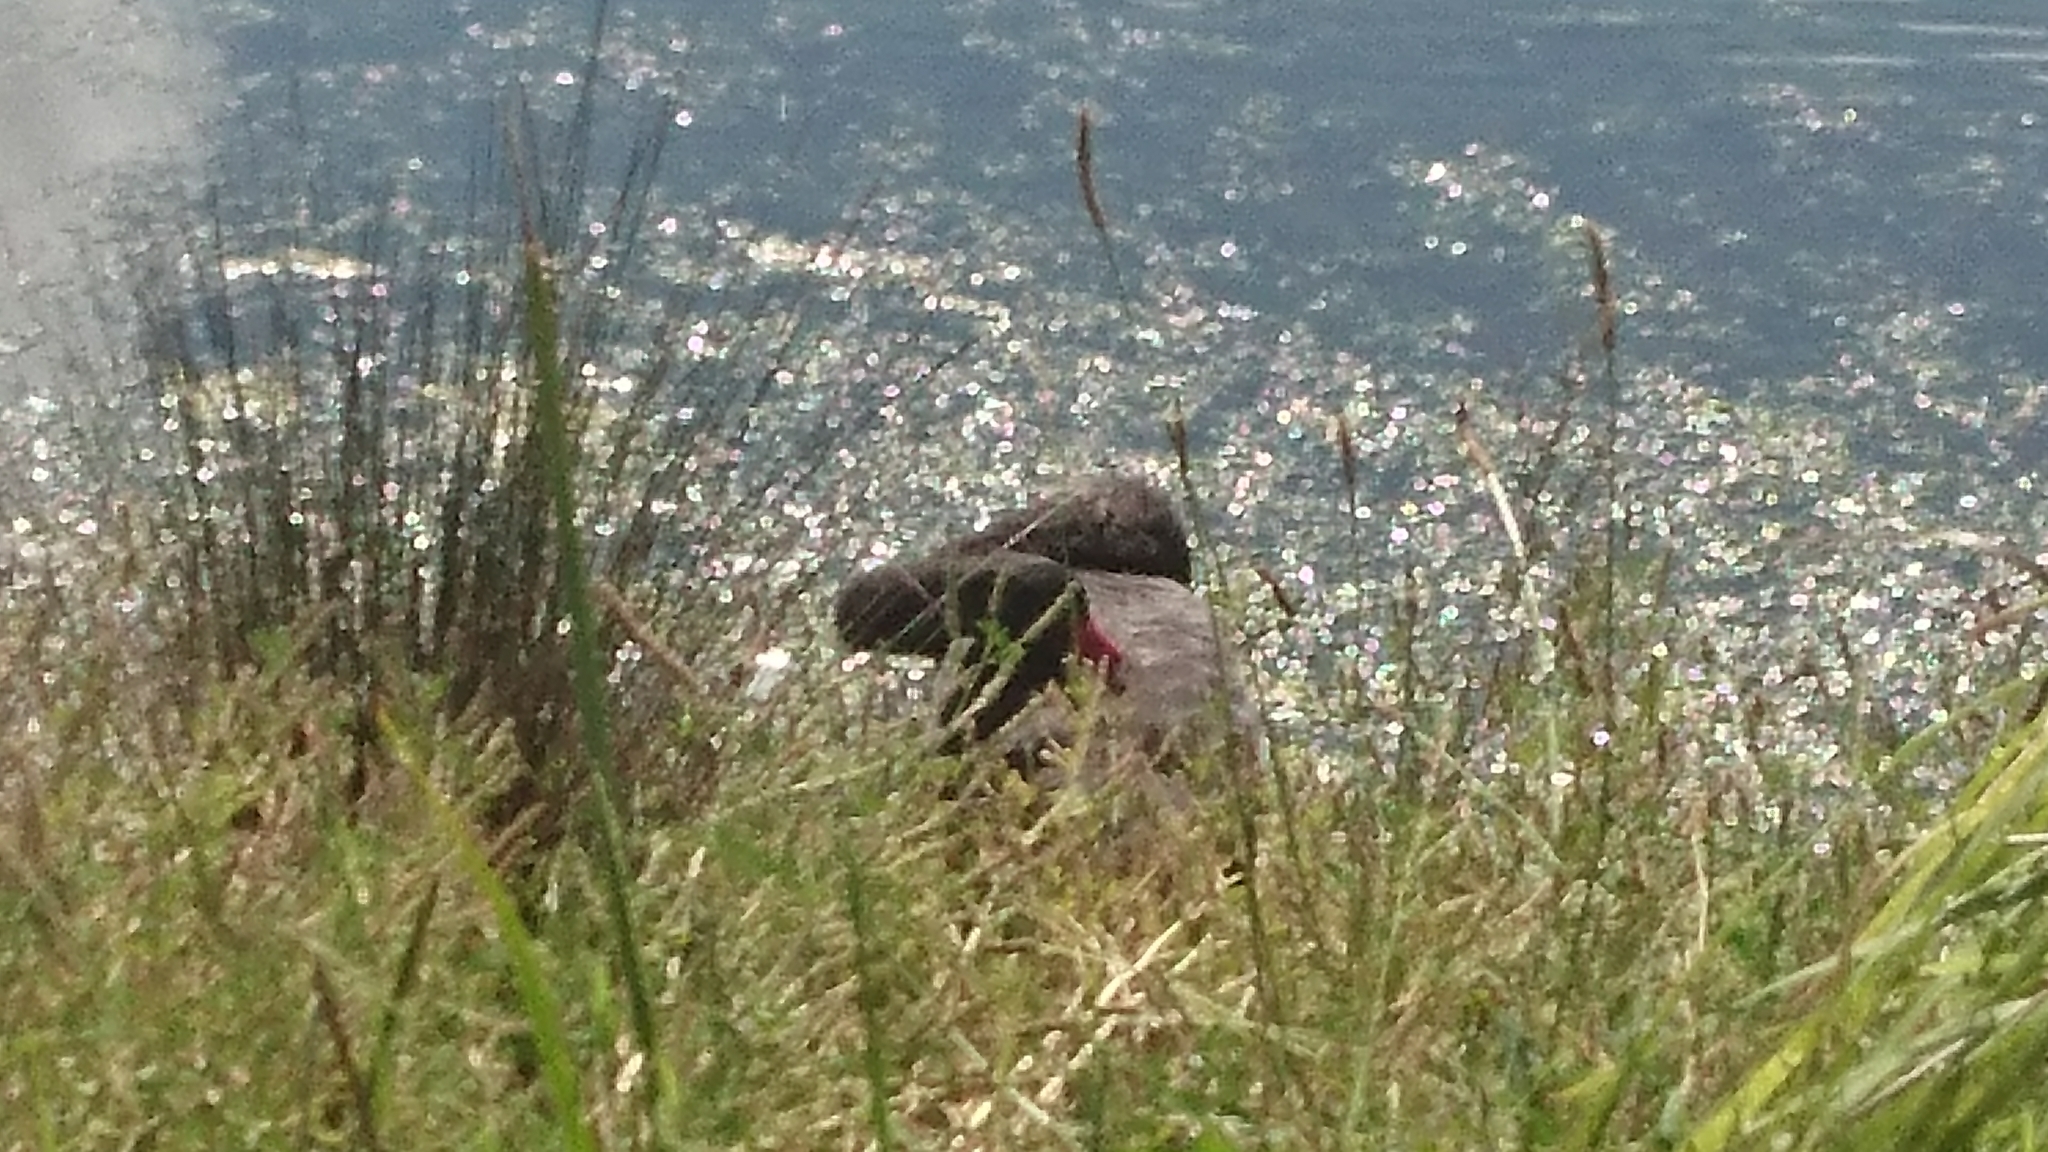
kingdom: Animalia
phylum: Chordata
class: Aves
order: Anseriformes
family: Anatidae
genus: Cygnus
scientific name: Cygnus atratus
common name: Black swan
